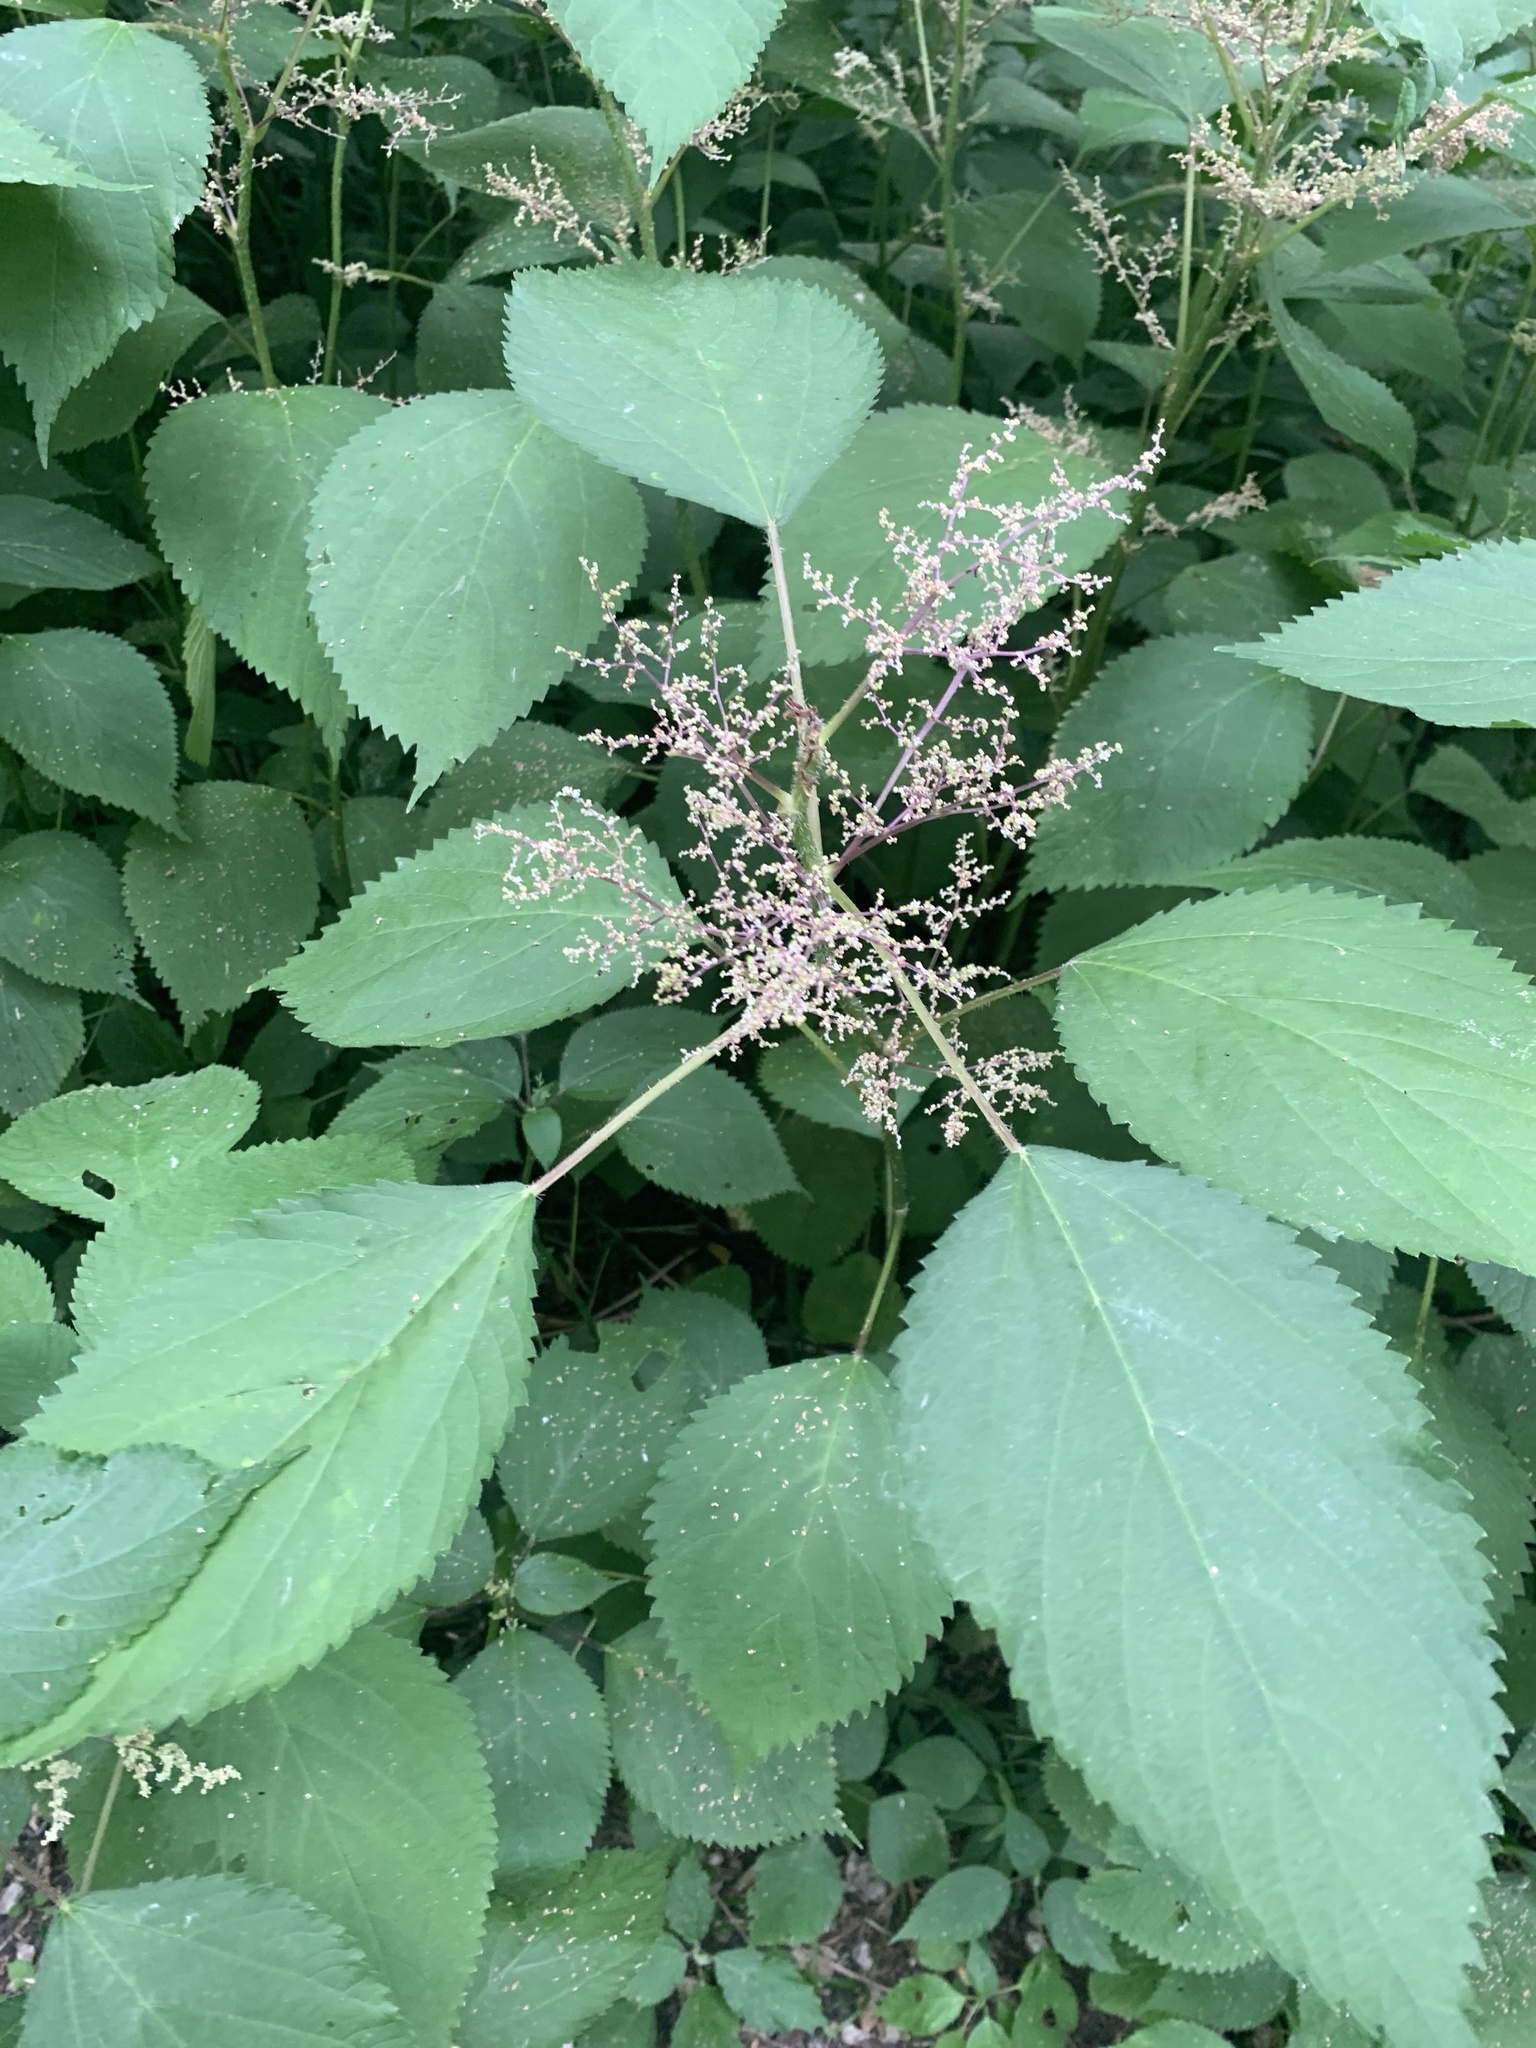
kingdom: Plantae
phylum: Tracheophyta
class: Magnoliopsida
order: Rosales
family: Urticaceae
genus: Laportea
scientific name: Laportea canadensis
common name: Canada nettle
